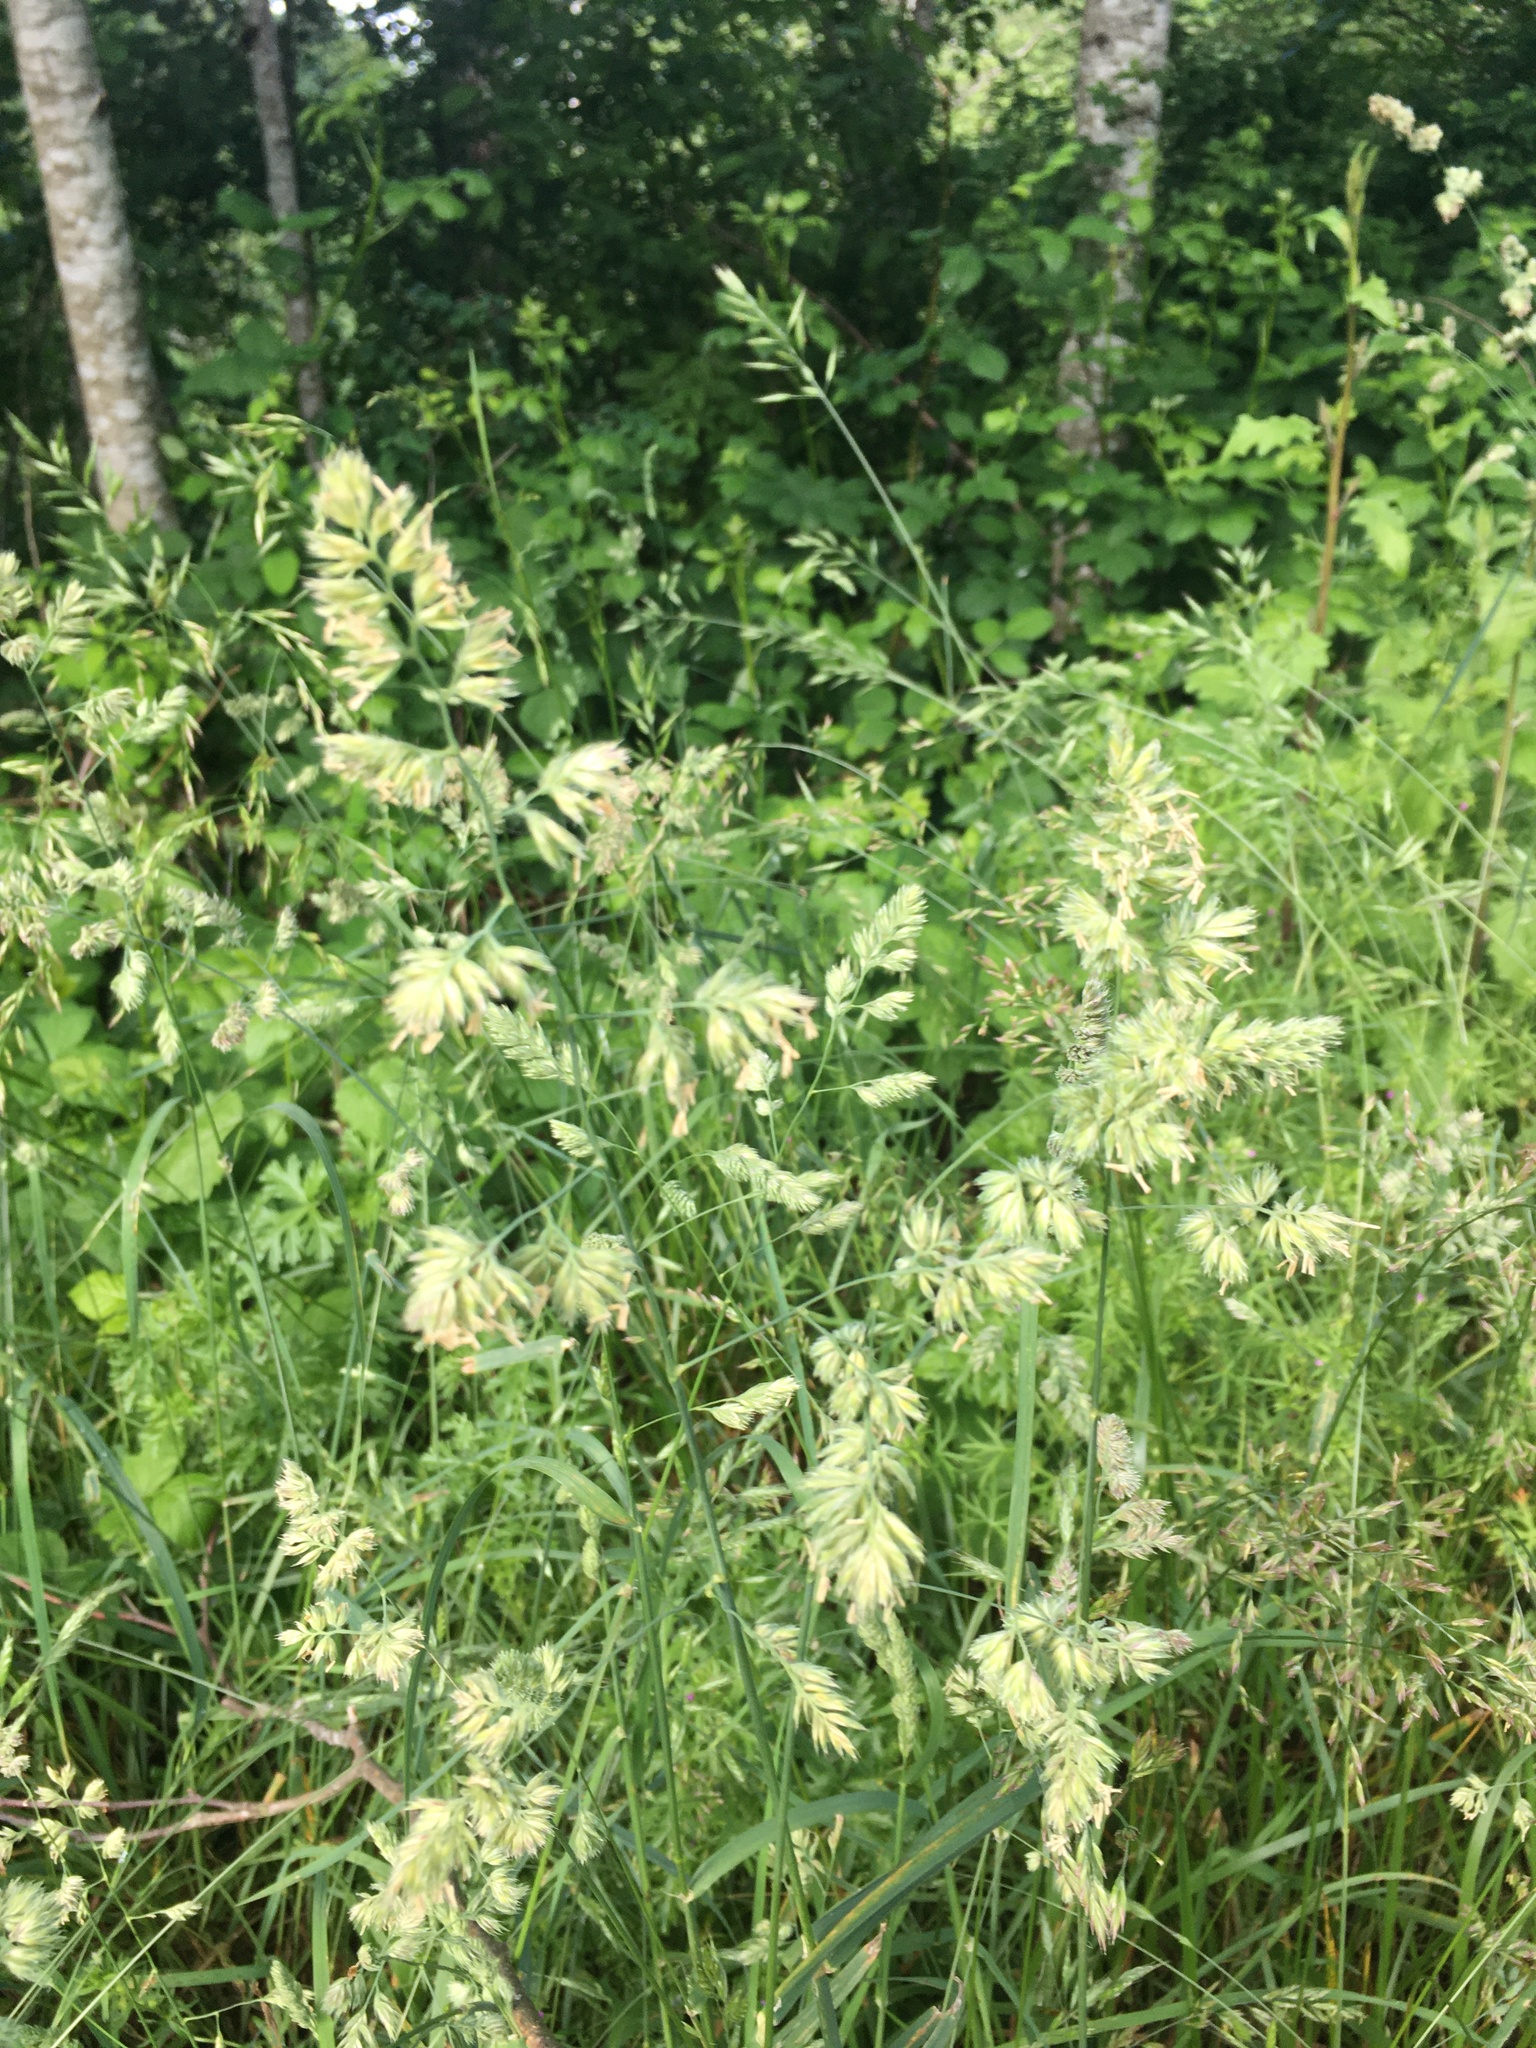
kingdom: Plantae
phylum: Tracheophyta
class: Liliopsida
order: Poales
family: Poaceae
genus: Dactylis
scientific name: Dactylis glomerata
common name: Orchardgrass
